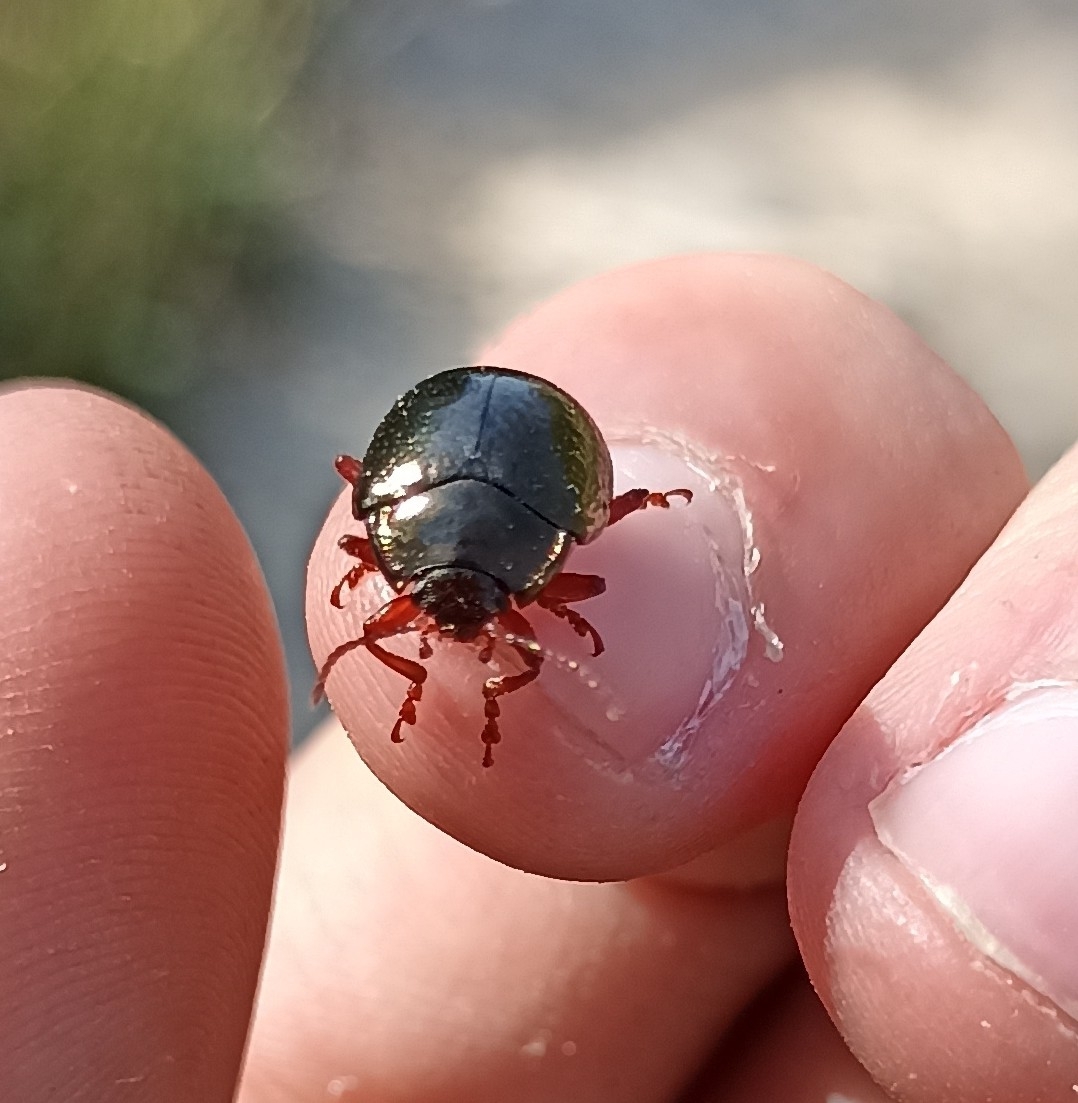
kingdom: Animalia
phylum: Arthropoda
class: Insecta
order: Coleoptera
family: Chrysomelidae
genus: Chrysolina
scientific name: Chrysolina bankii
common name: Leaf beetle
